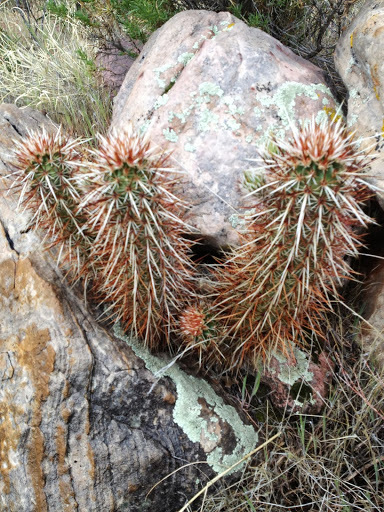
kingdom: Plantae
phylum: Tracheophyta
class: Magnoliopsida
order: Caryophyllales
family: Cactaceae
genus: Echinocereus
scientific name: Echinocereus engelmannii
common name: Engelmann's hedgehog cactus
